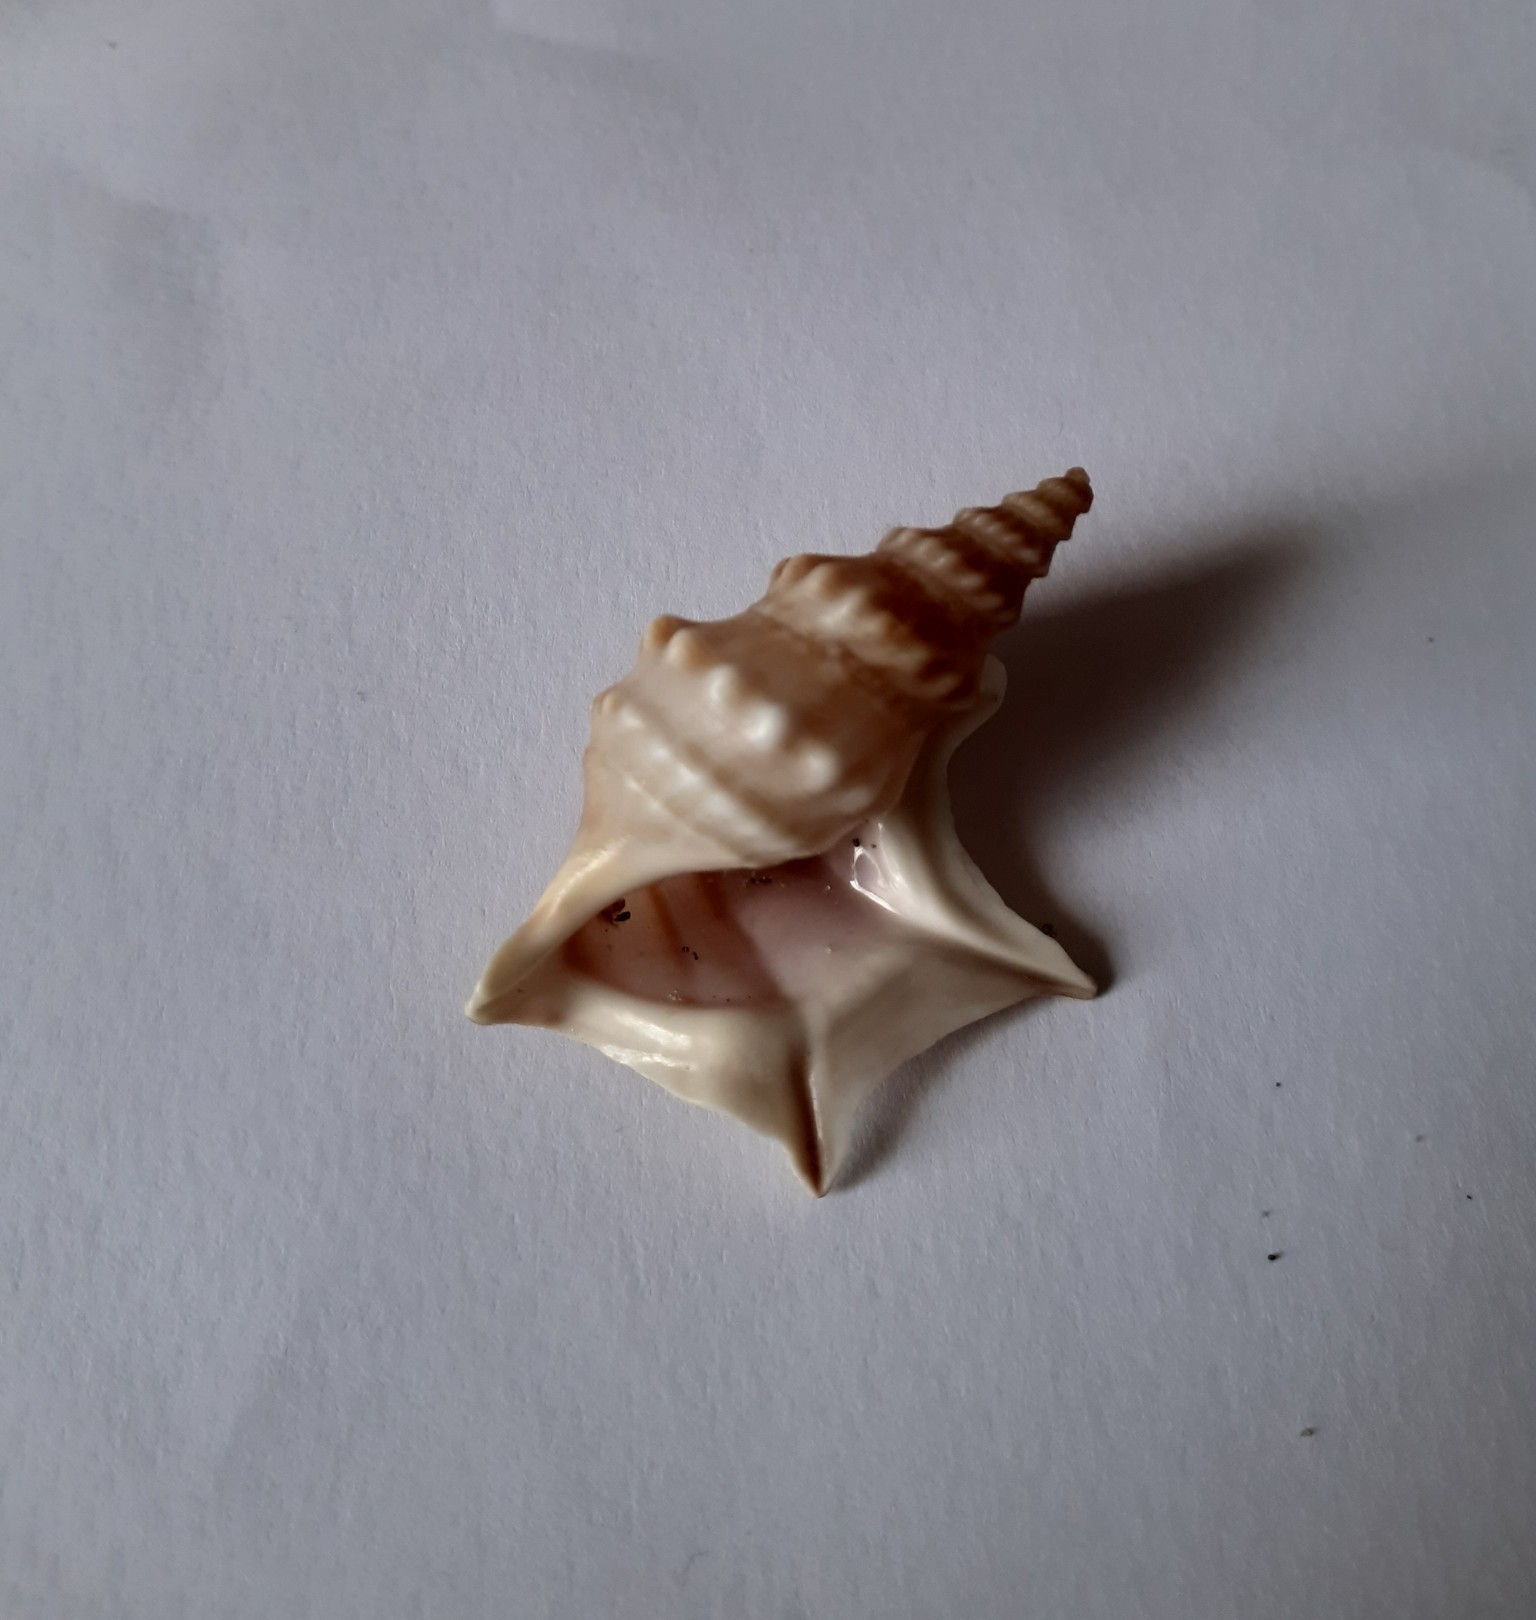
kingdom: Animalia
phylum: Mollusca
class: Gastropoda
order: Littorinimorpha
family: Aporrhaidae
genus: Aporrhais
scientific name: Aporrhais pespelecani
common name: Common pelican’s foot
